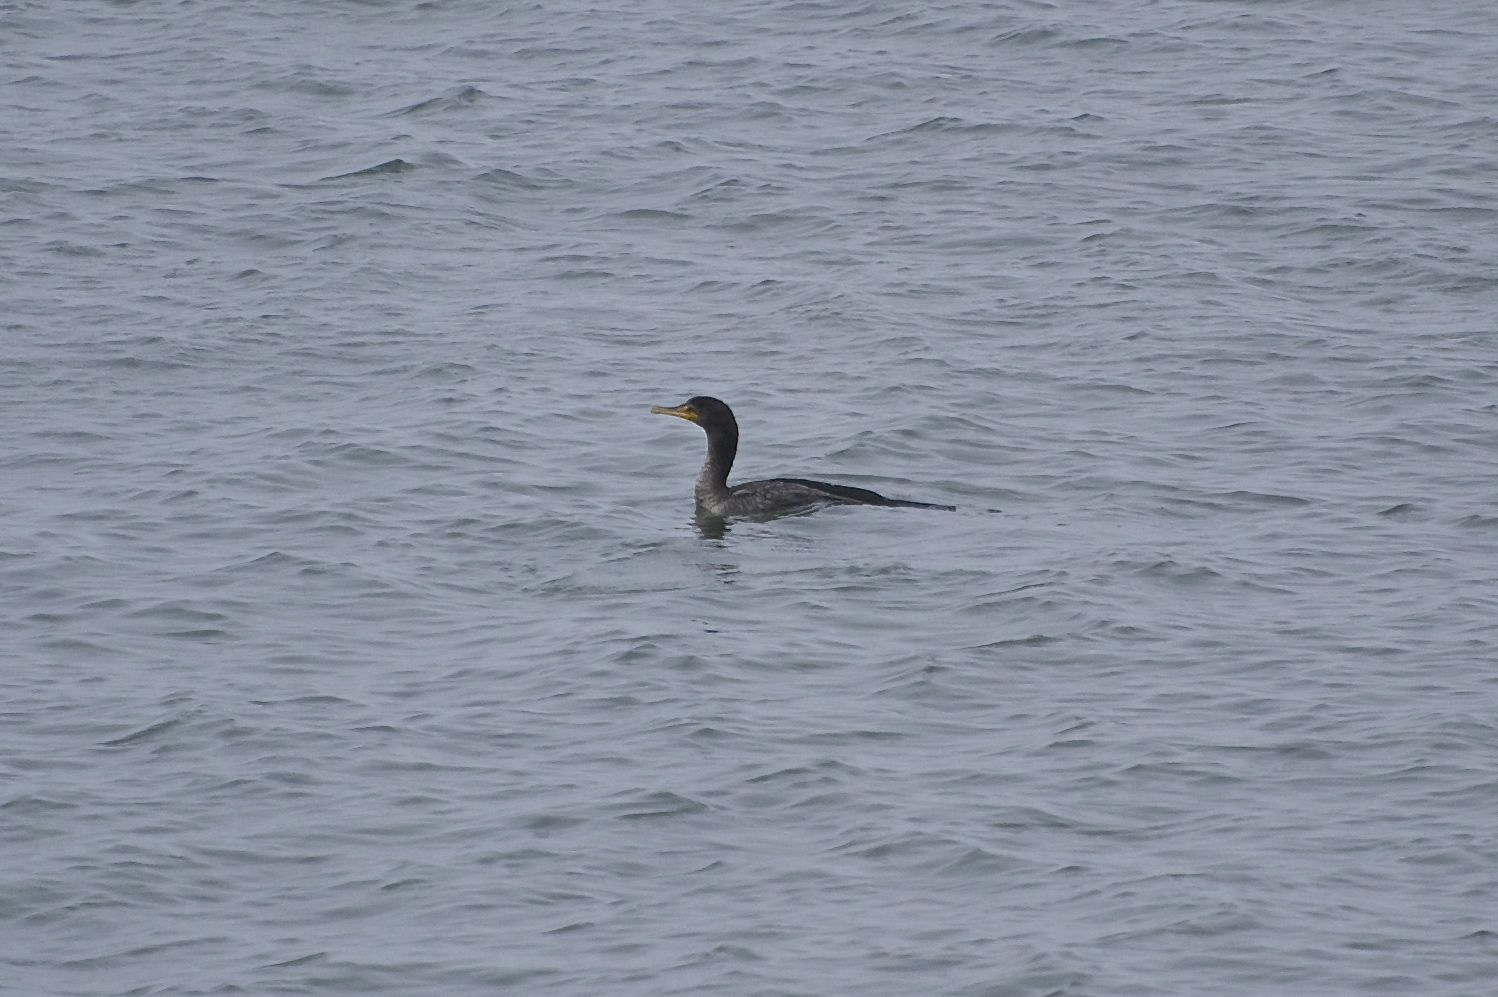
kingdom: Animalia
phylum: Chordata
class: Aves
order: Suliformes
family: Phalacrocoracidae
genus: Urile
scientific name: Urile penicillatus
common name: Brandt's cormorant
